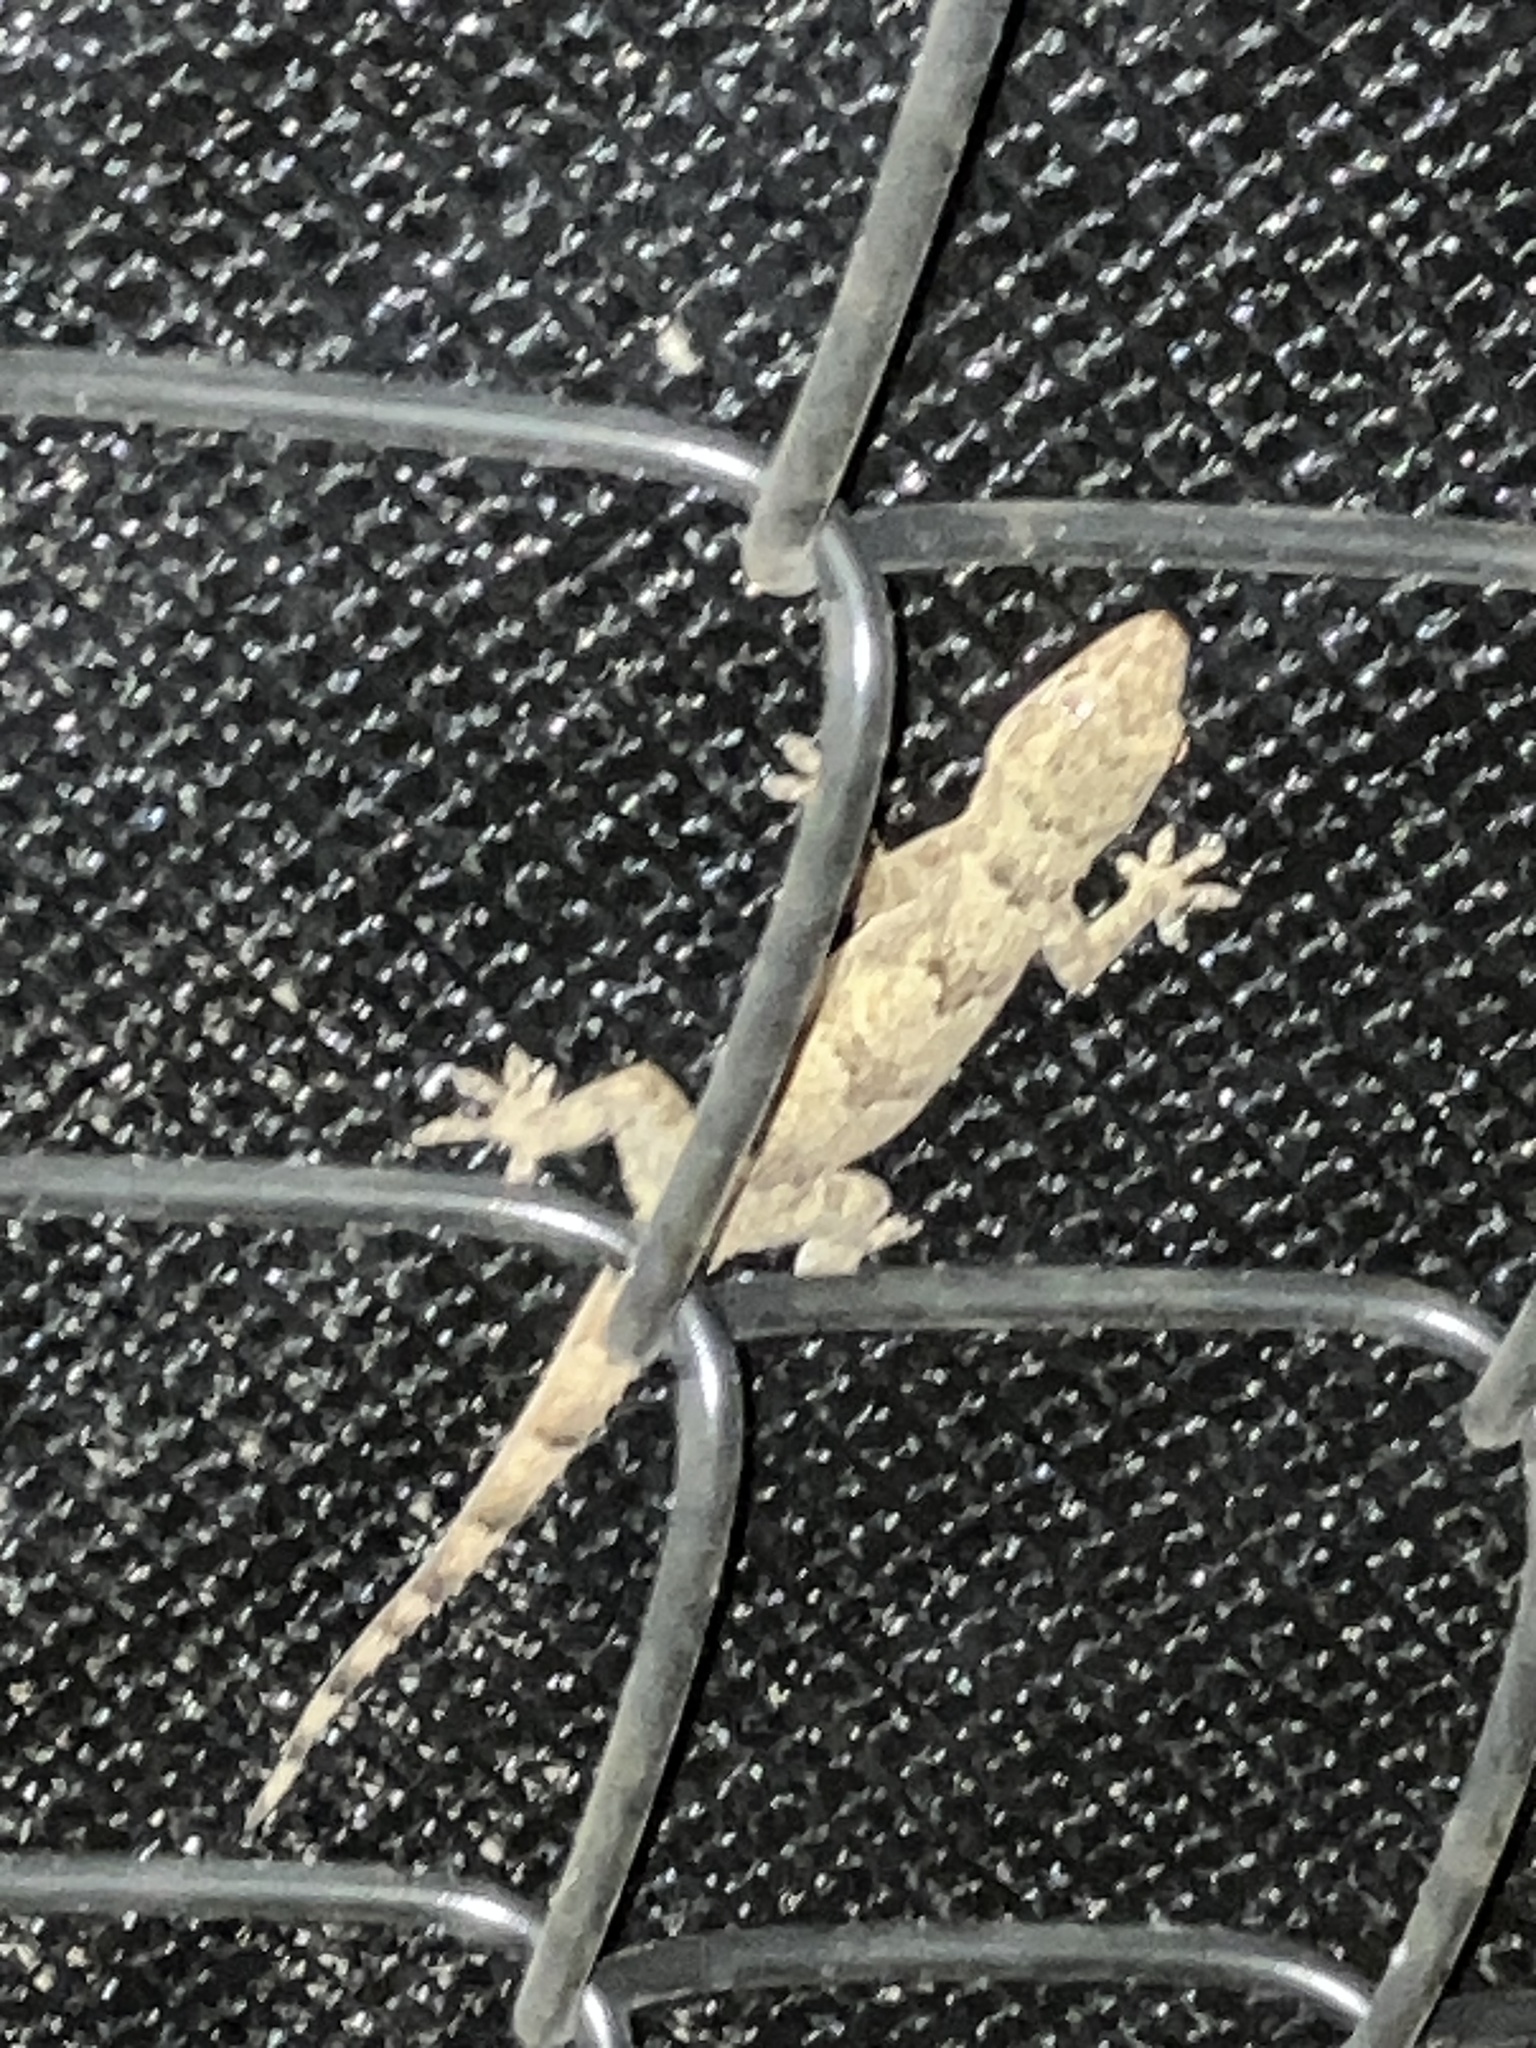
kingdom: Animalia
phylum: Chordata
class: Squamata
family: Gekkonidae
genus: Hemidactylus
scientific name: Hemidactylus mabouia
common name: House gecko
